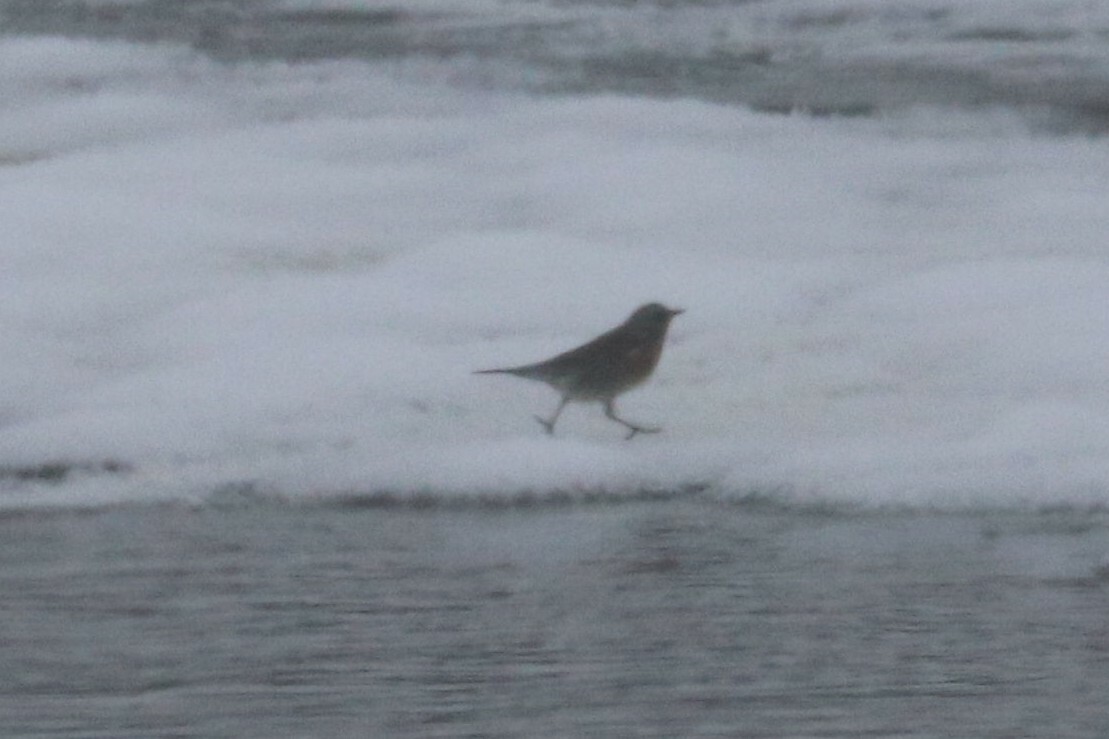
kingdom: Animalia
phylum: Chordata
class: Aves
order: Passeriformes
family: Turdidae
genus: Turdus
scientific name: Turdus pilaris
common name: Fieldfare
